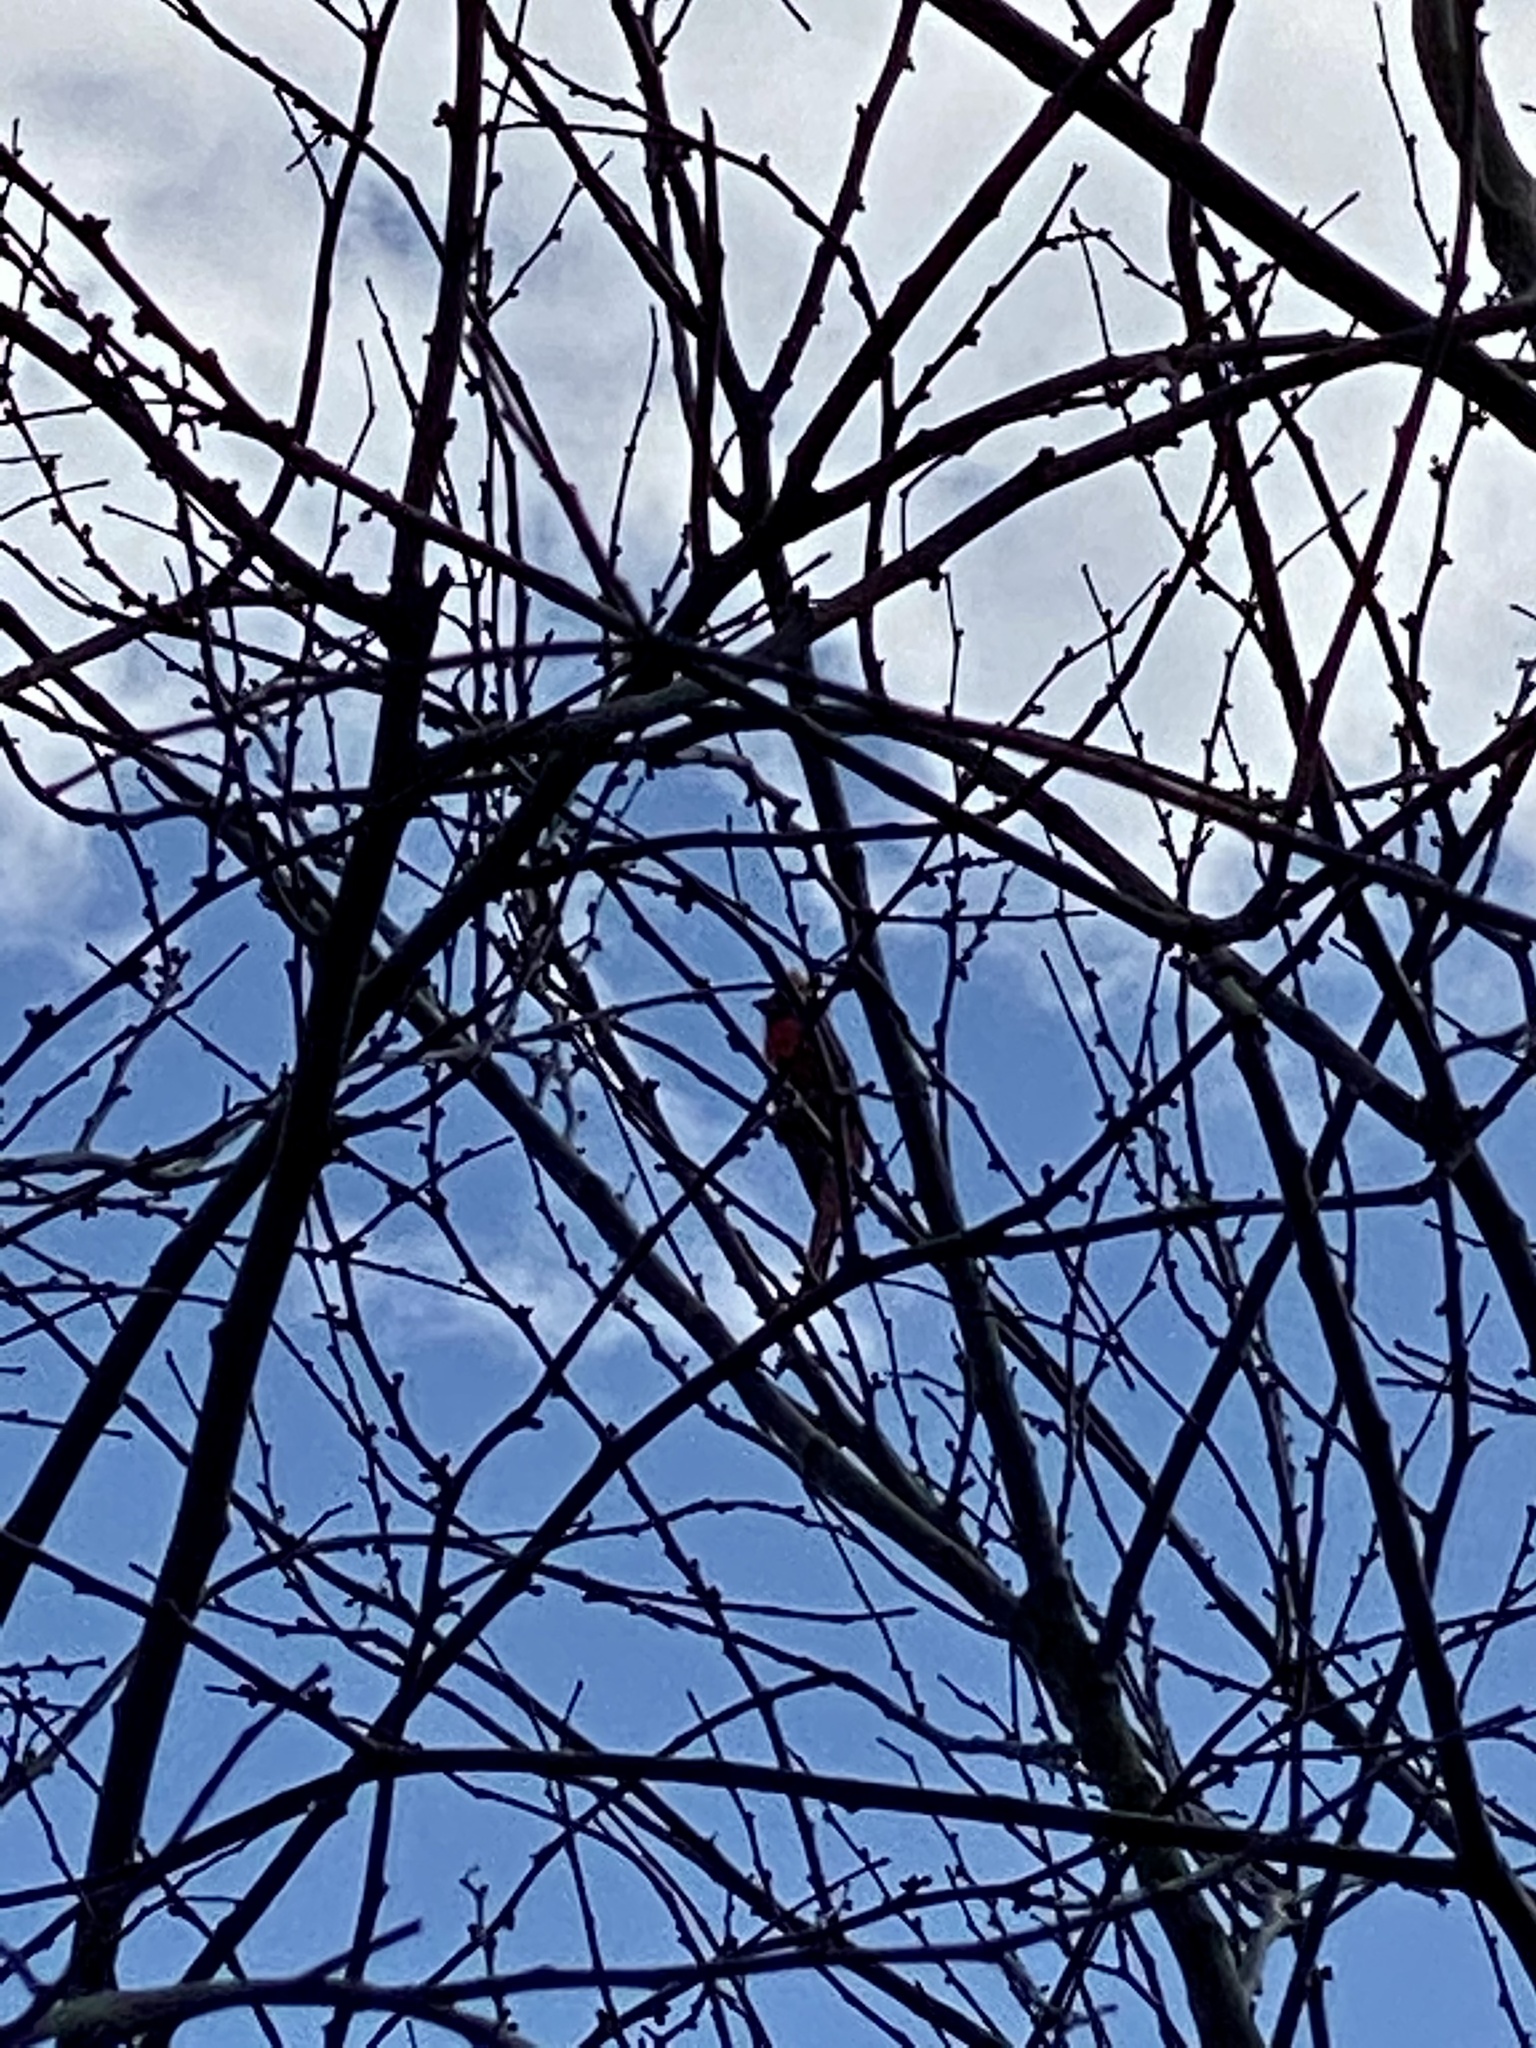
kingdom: Animalia
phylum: Chordata
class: Aves
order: Passeriformes
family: Cardinalidae
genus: Cardinalis
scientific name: Cardinalis cardinalis
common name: Northern cardinal
